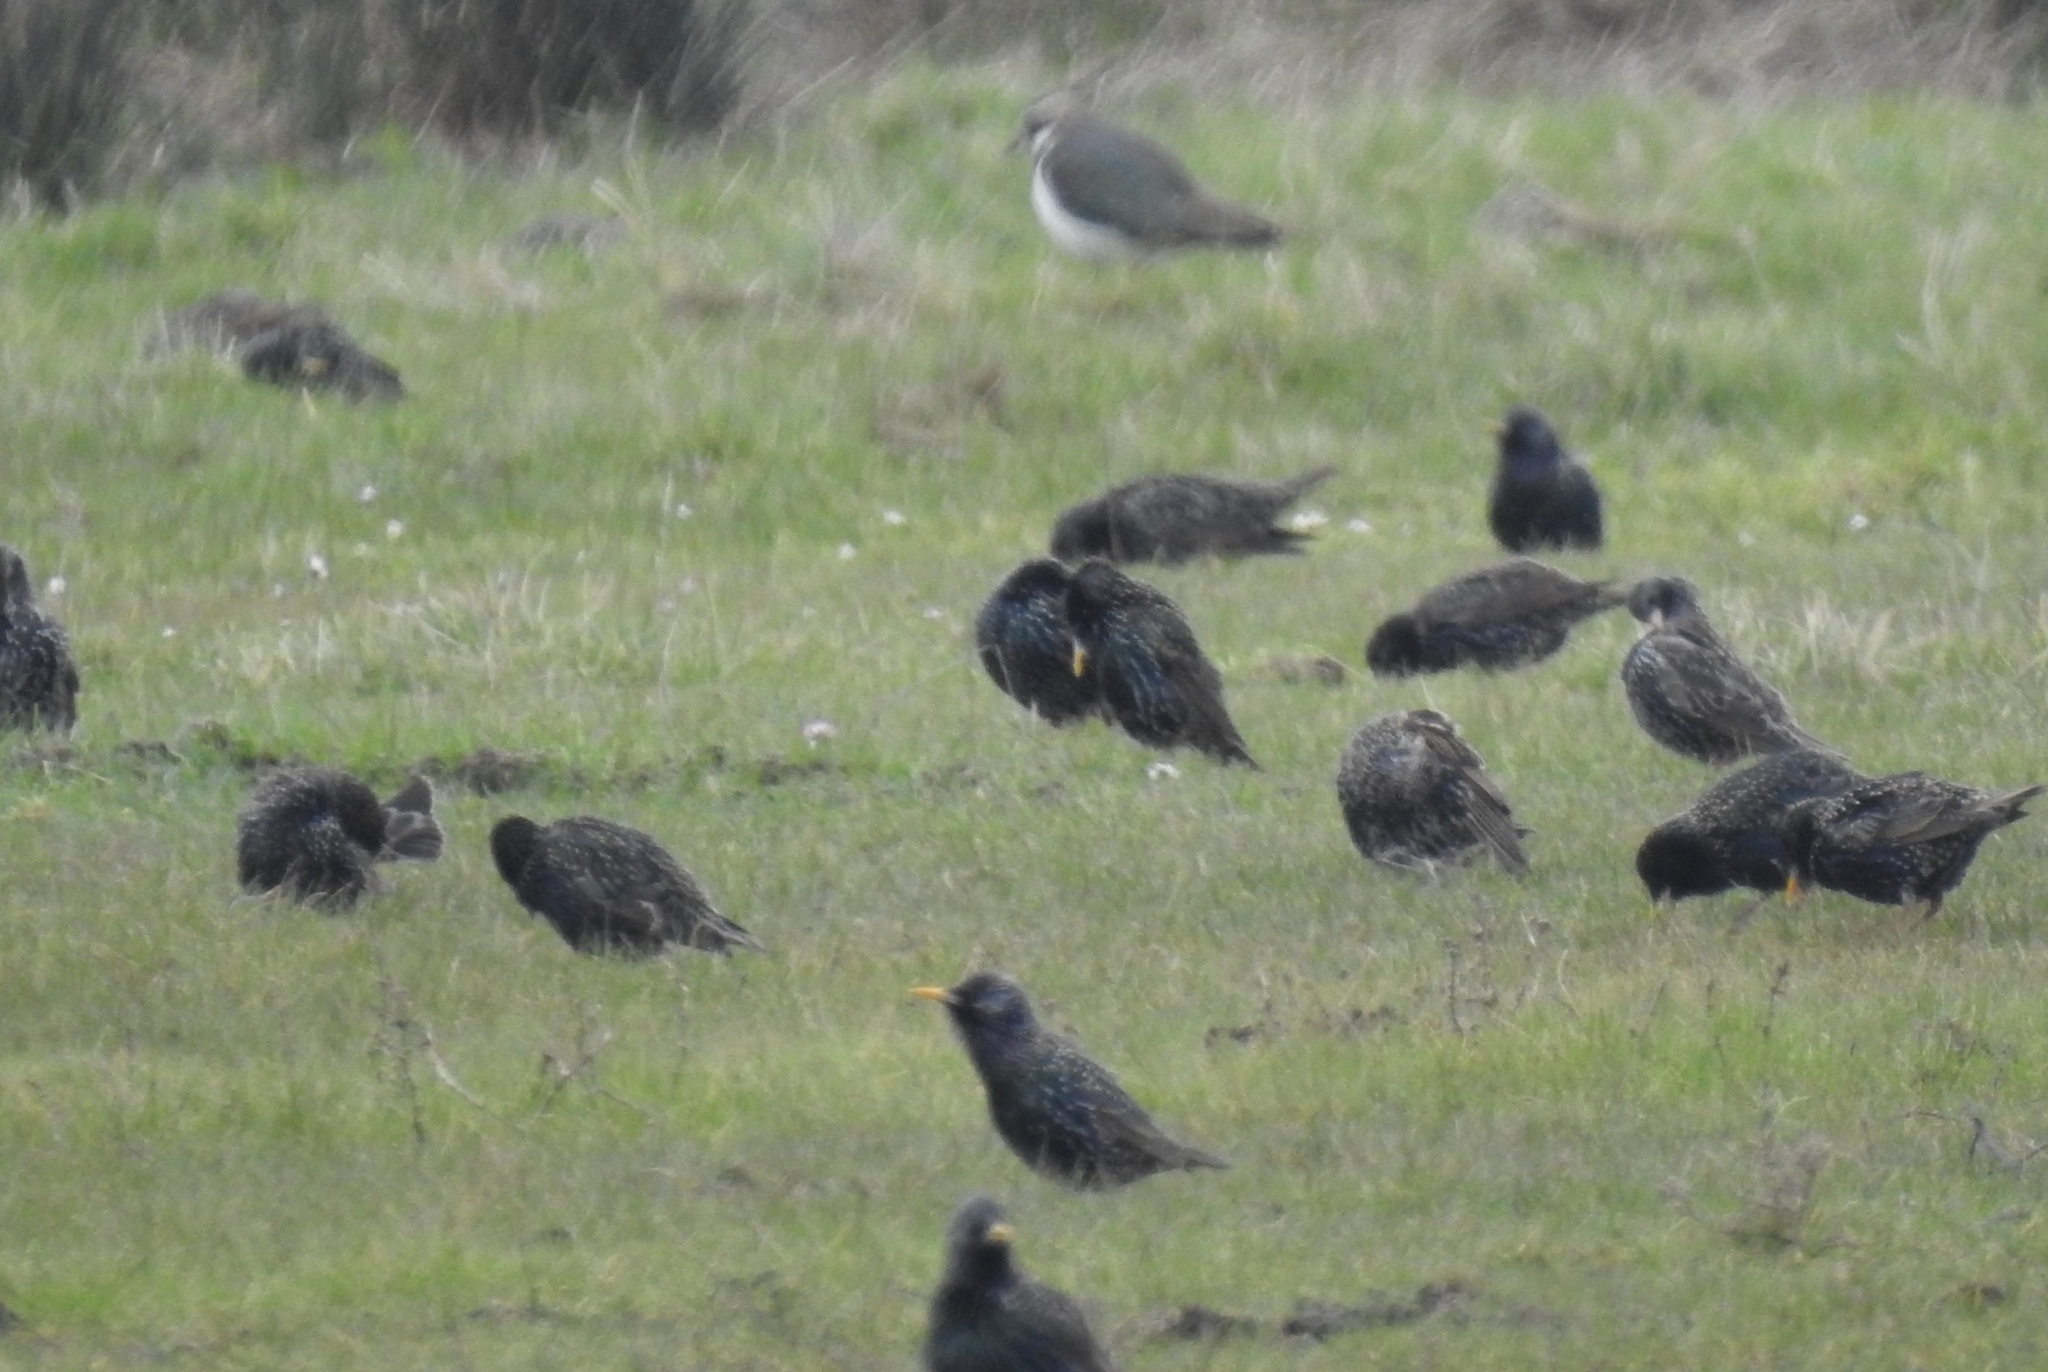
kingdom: Animalia
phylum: Chordata
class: Aves
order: Passeriformes
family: Sturnidae
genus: Sturnus
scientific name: Sturnus vulgaris
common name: Common starling
